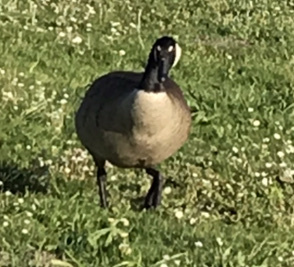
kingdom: Animalia
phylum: Chordata
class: Aves
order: Anseriformes
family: Anatidae
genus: Branta
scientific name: Branta canadensis
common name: Canada goose
